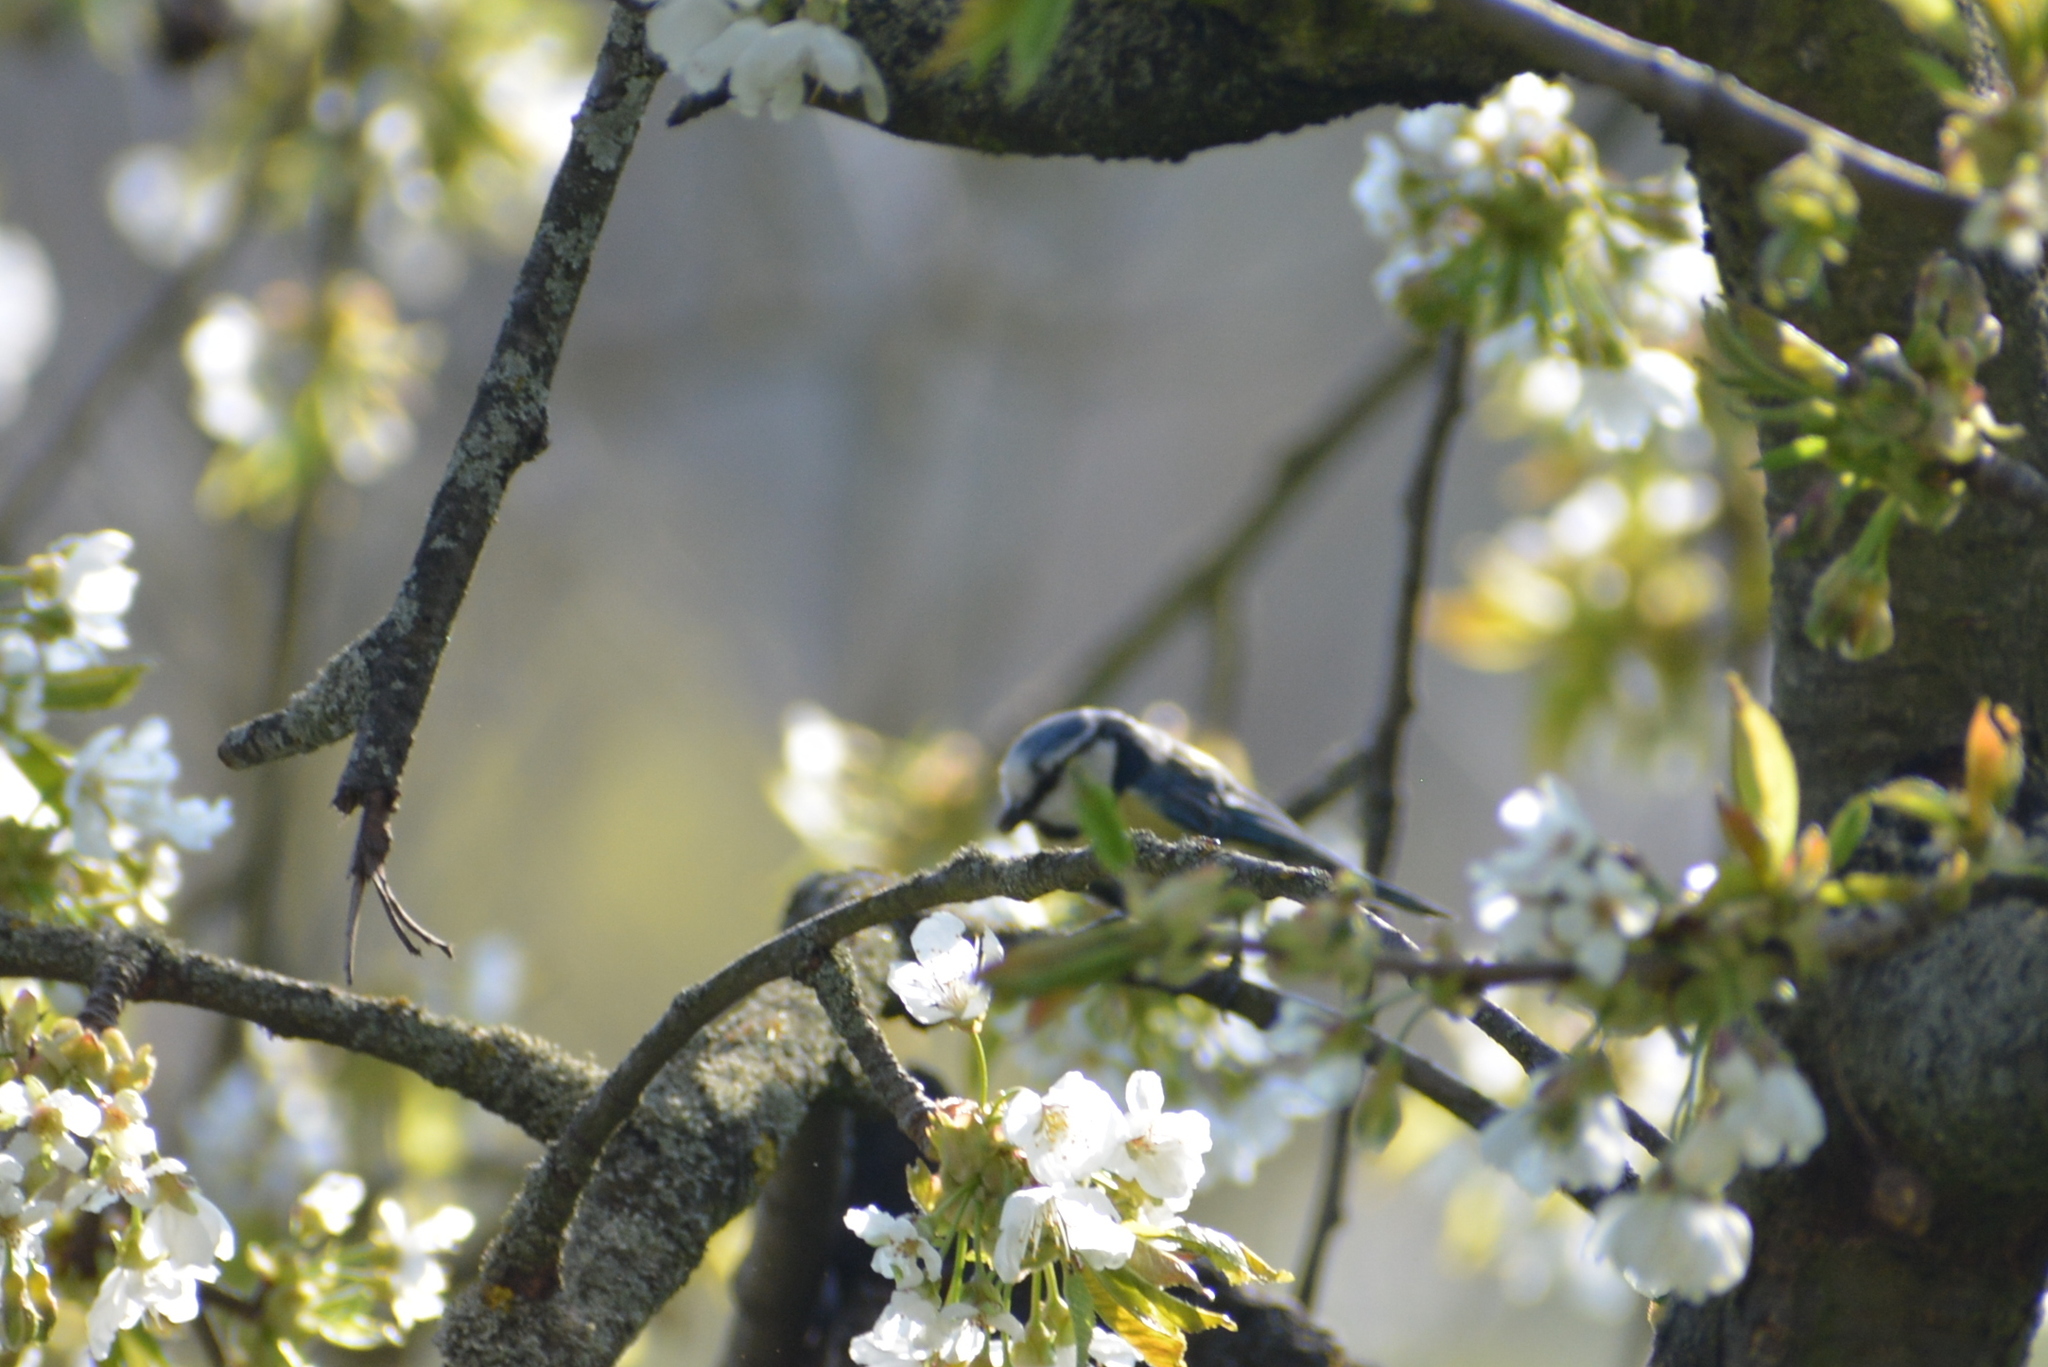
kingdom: Animalia
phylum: Chordata
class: Aves
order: Passeriformes
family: Paridae
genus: Cyanistes
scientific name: Cyanistes caeruleus
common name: Eurasian blue tit
